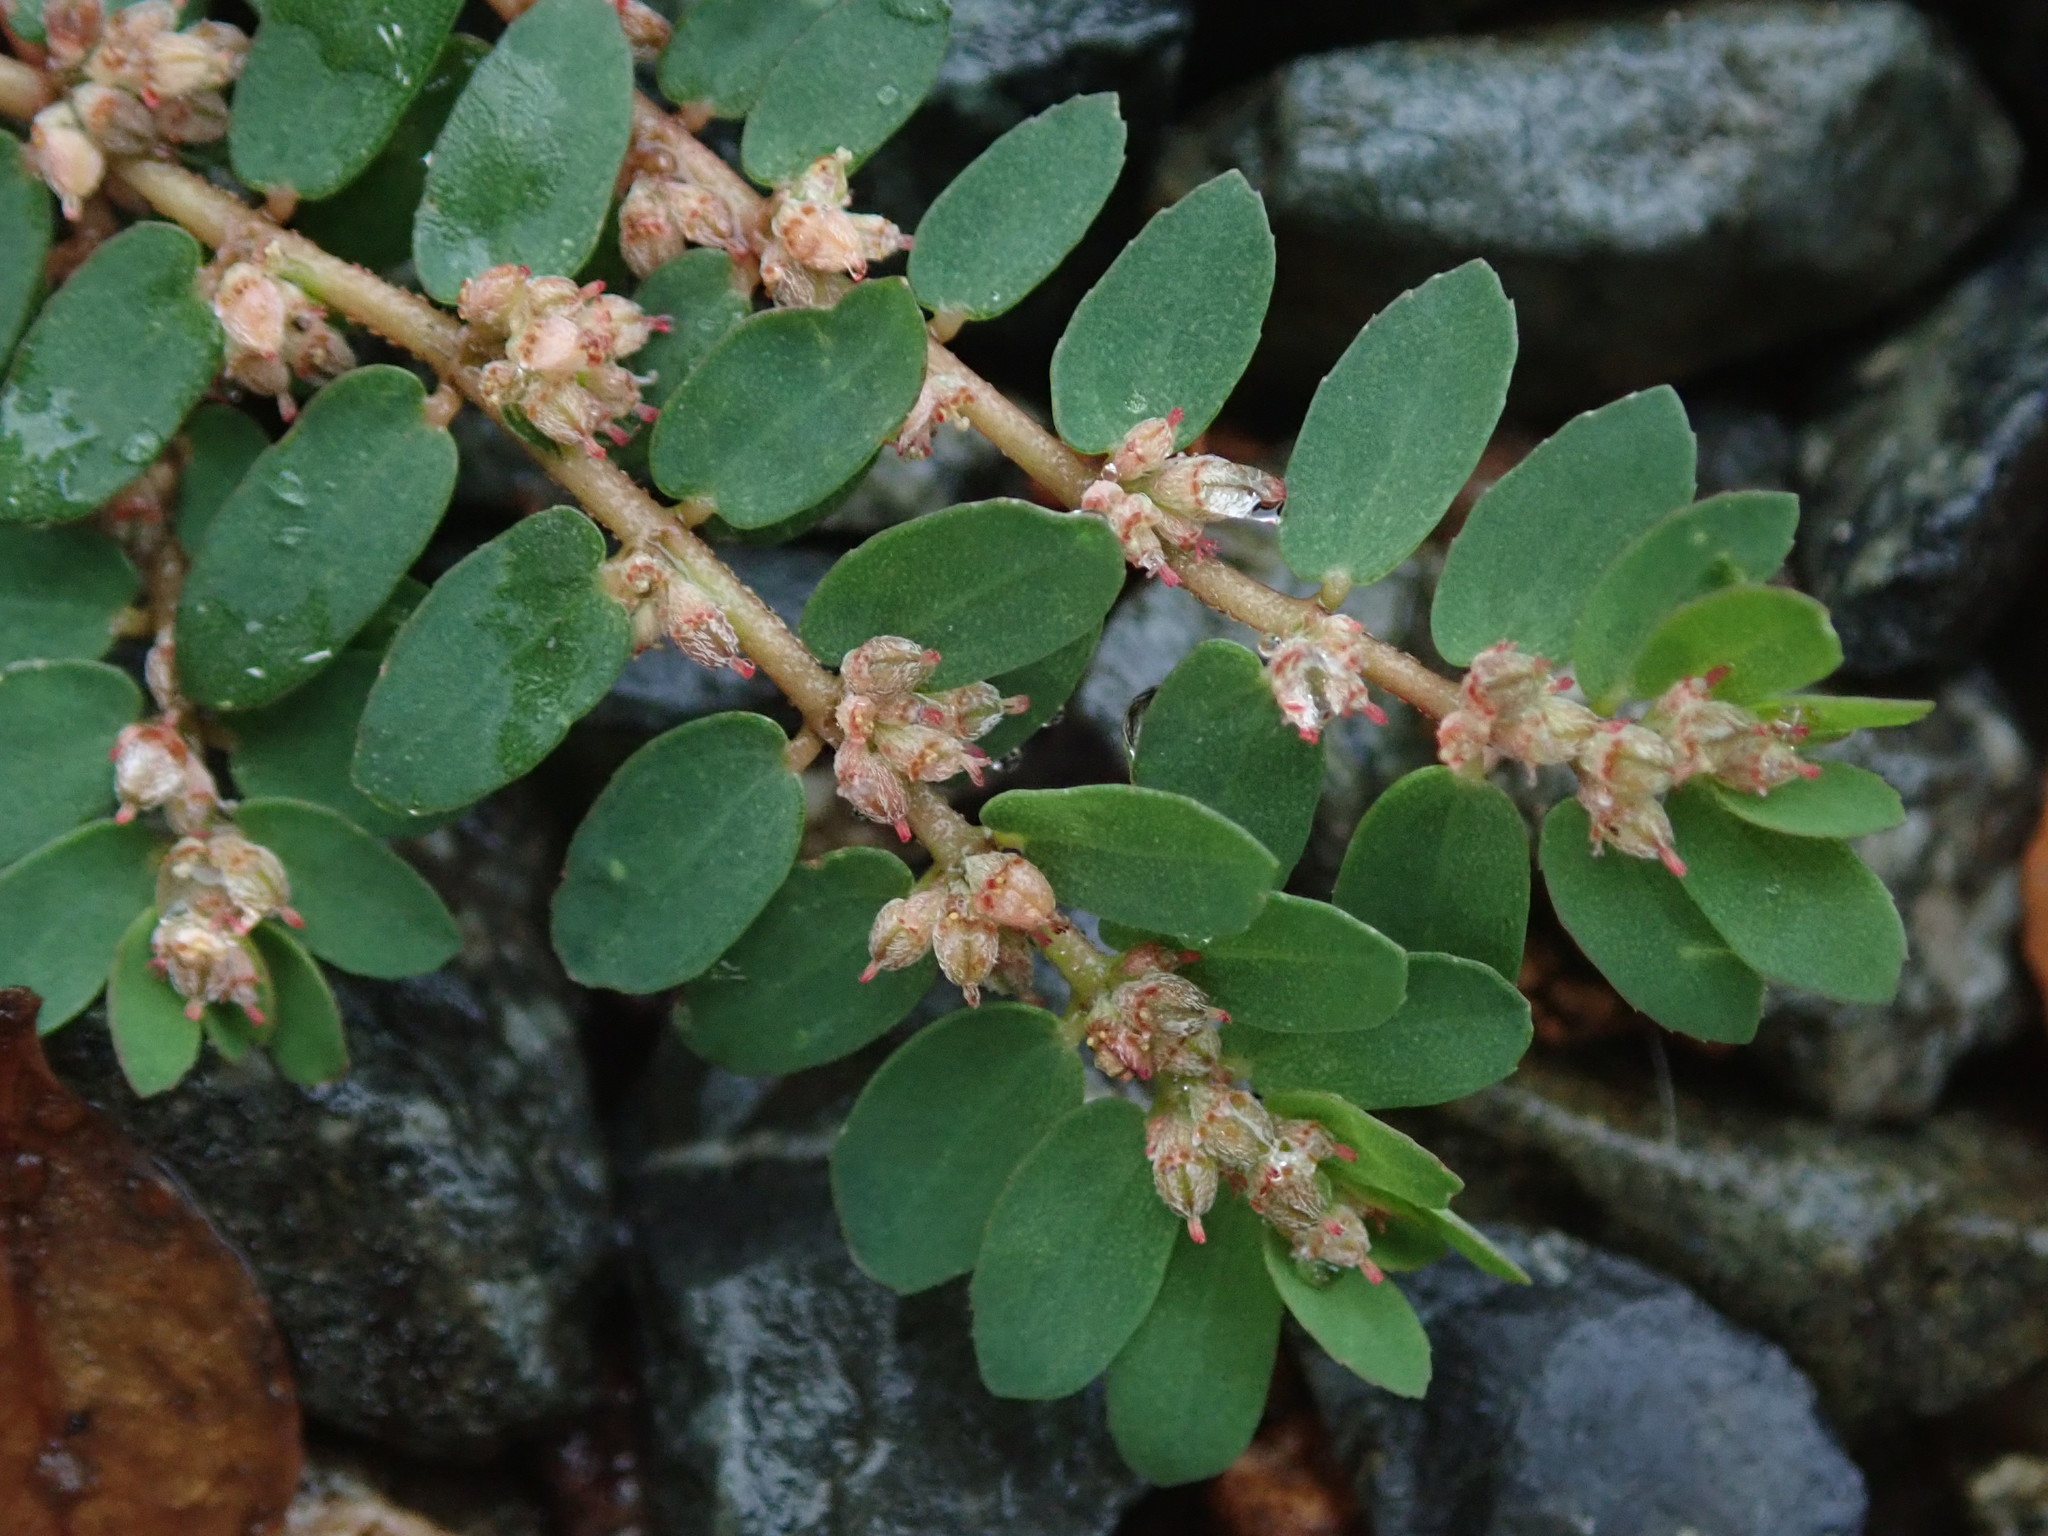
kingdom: Plantae
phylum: Tracheophyta
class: Magnoliopsida
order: Malpighiales
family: Euphorbiaceae
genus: Euphorbia
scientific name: Euphorbia thymifolia
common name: Gulf sandmat
